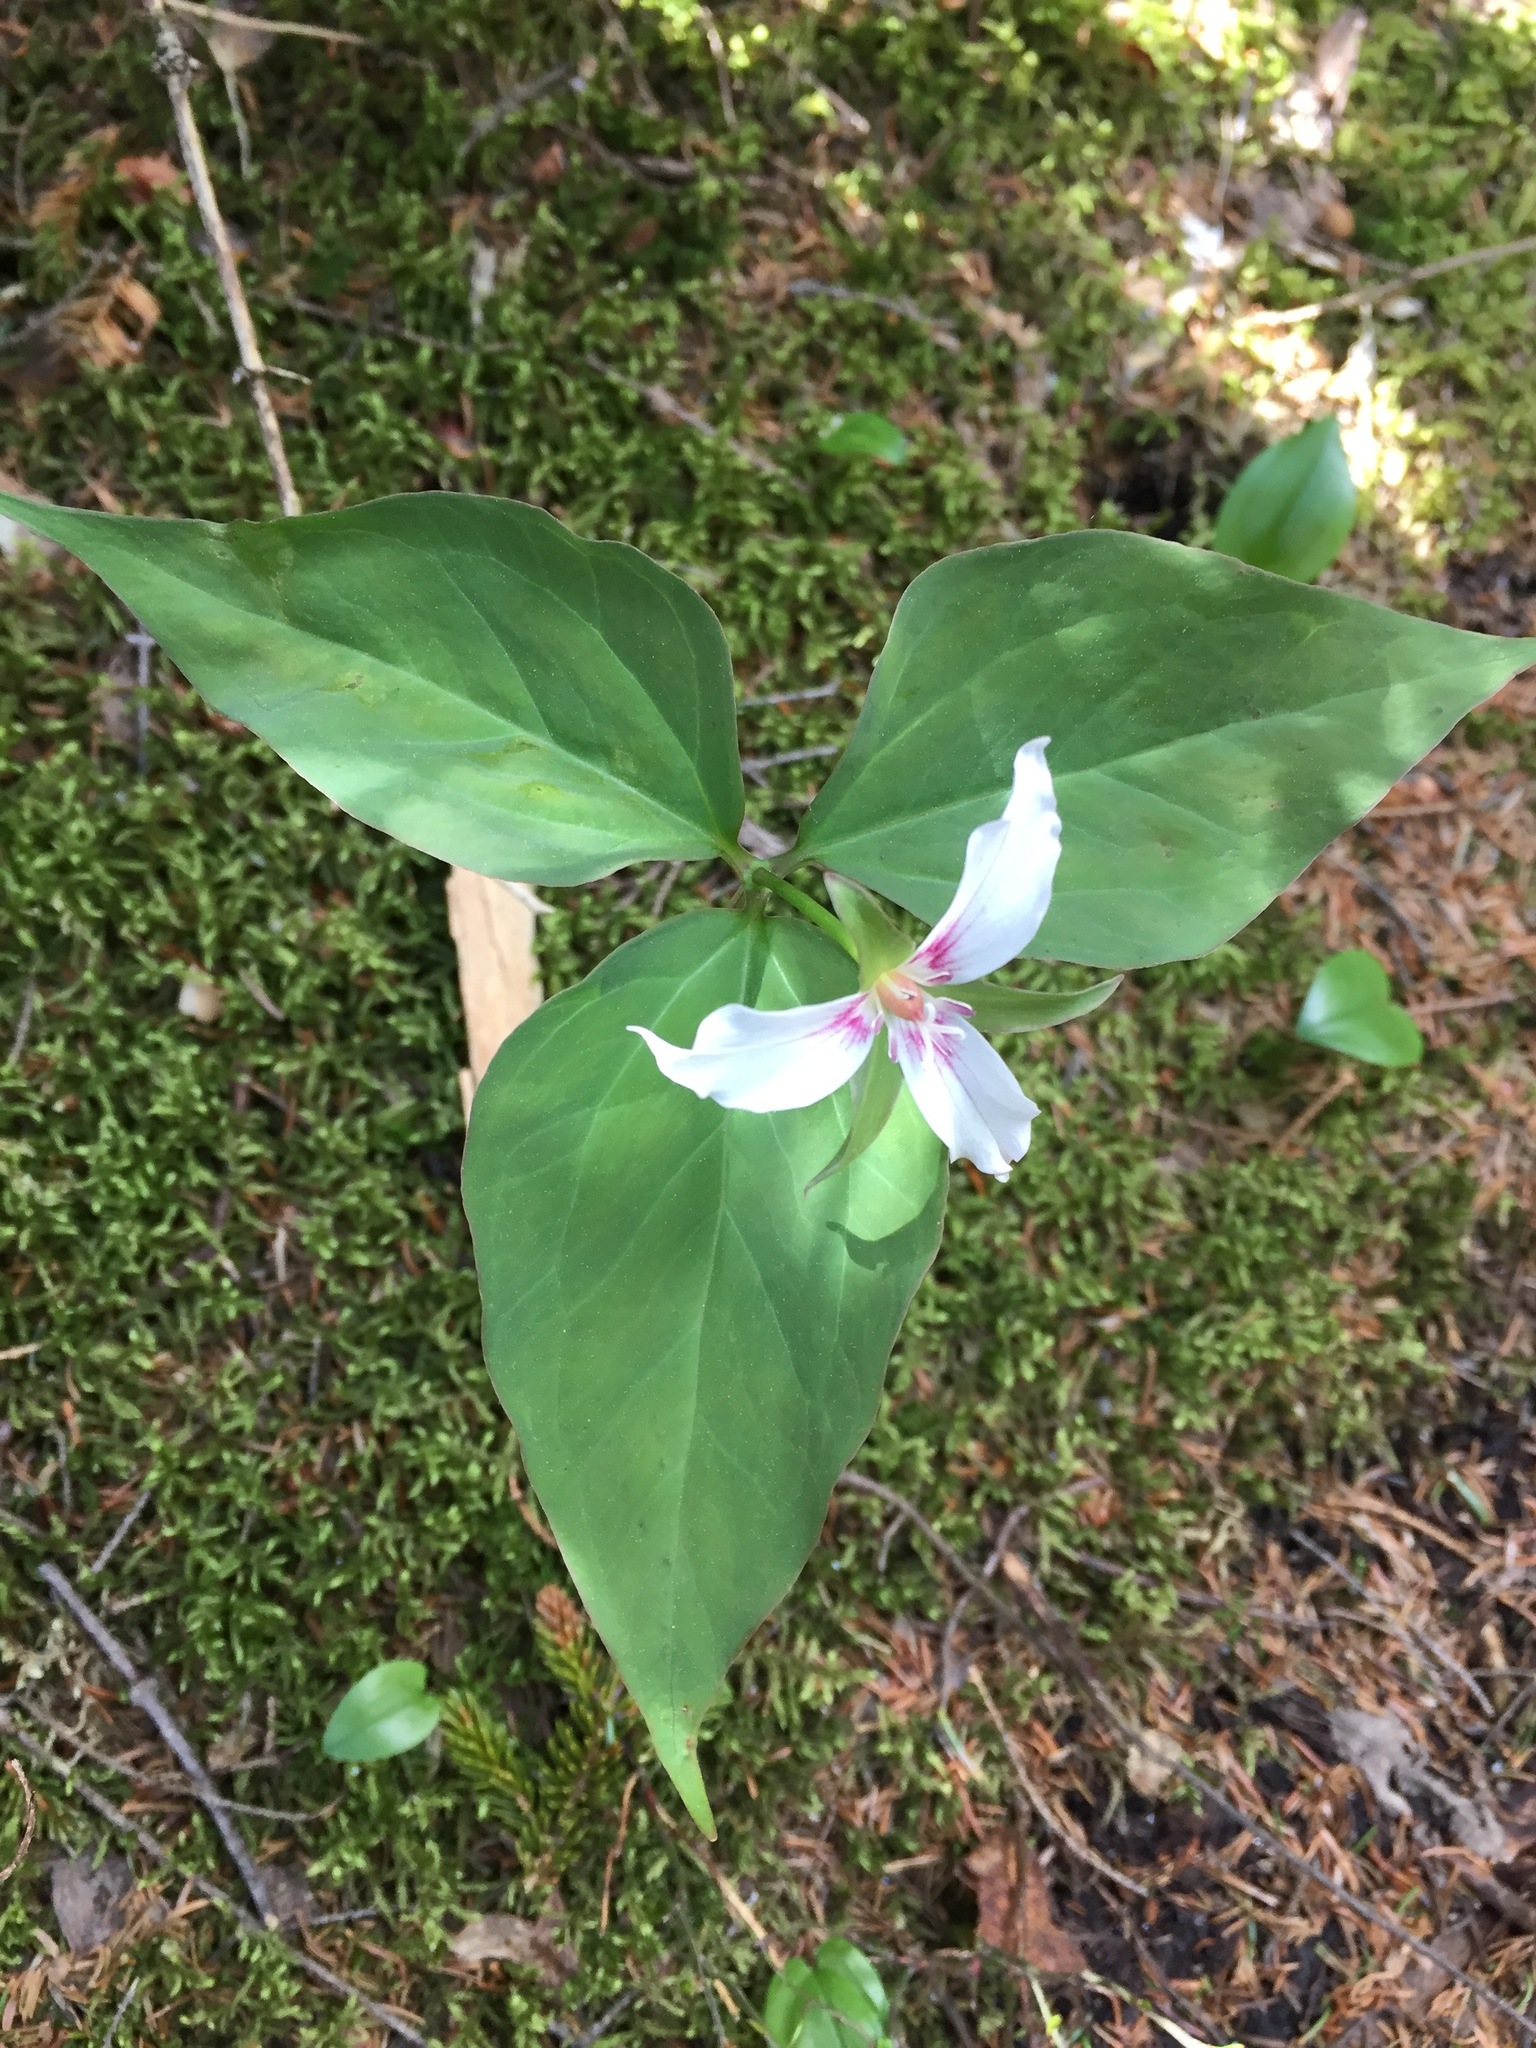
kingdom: Plantae
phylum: Tracheophyta
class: Liliopsida
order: Liliales
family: Melanthiaceae
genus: Trillium
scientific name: Trillium undulatum
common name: Paint trillium
